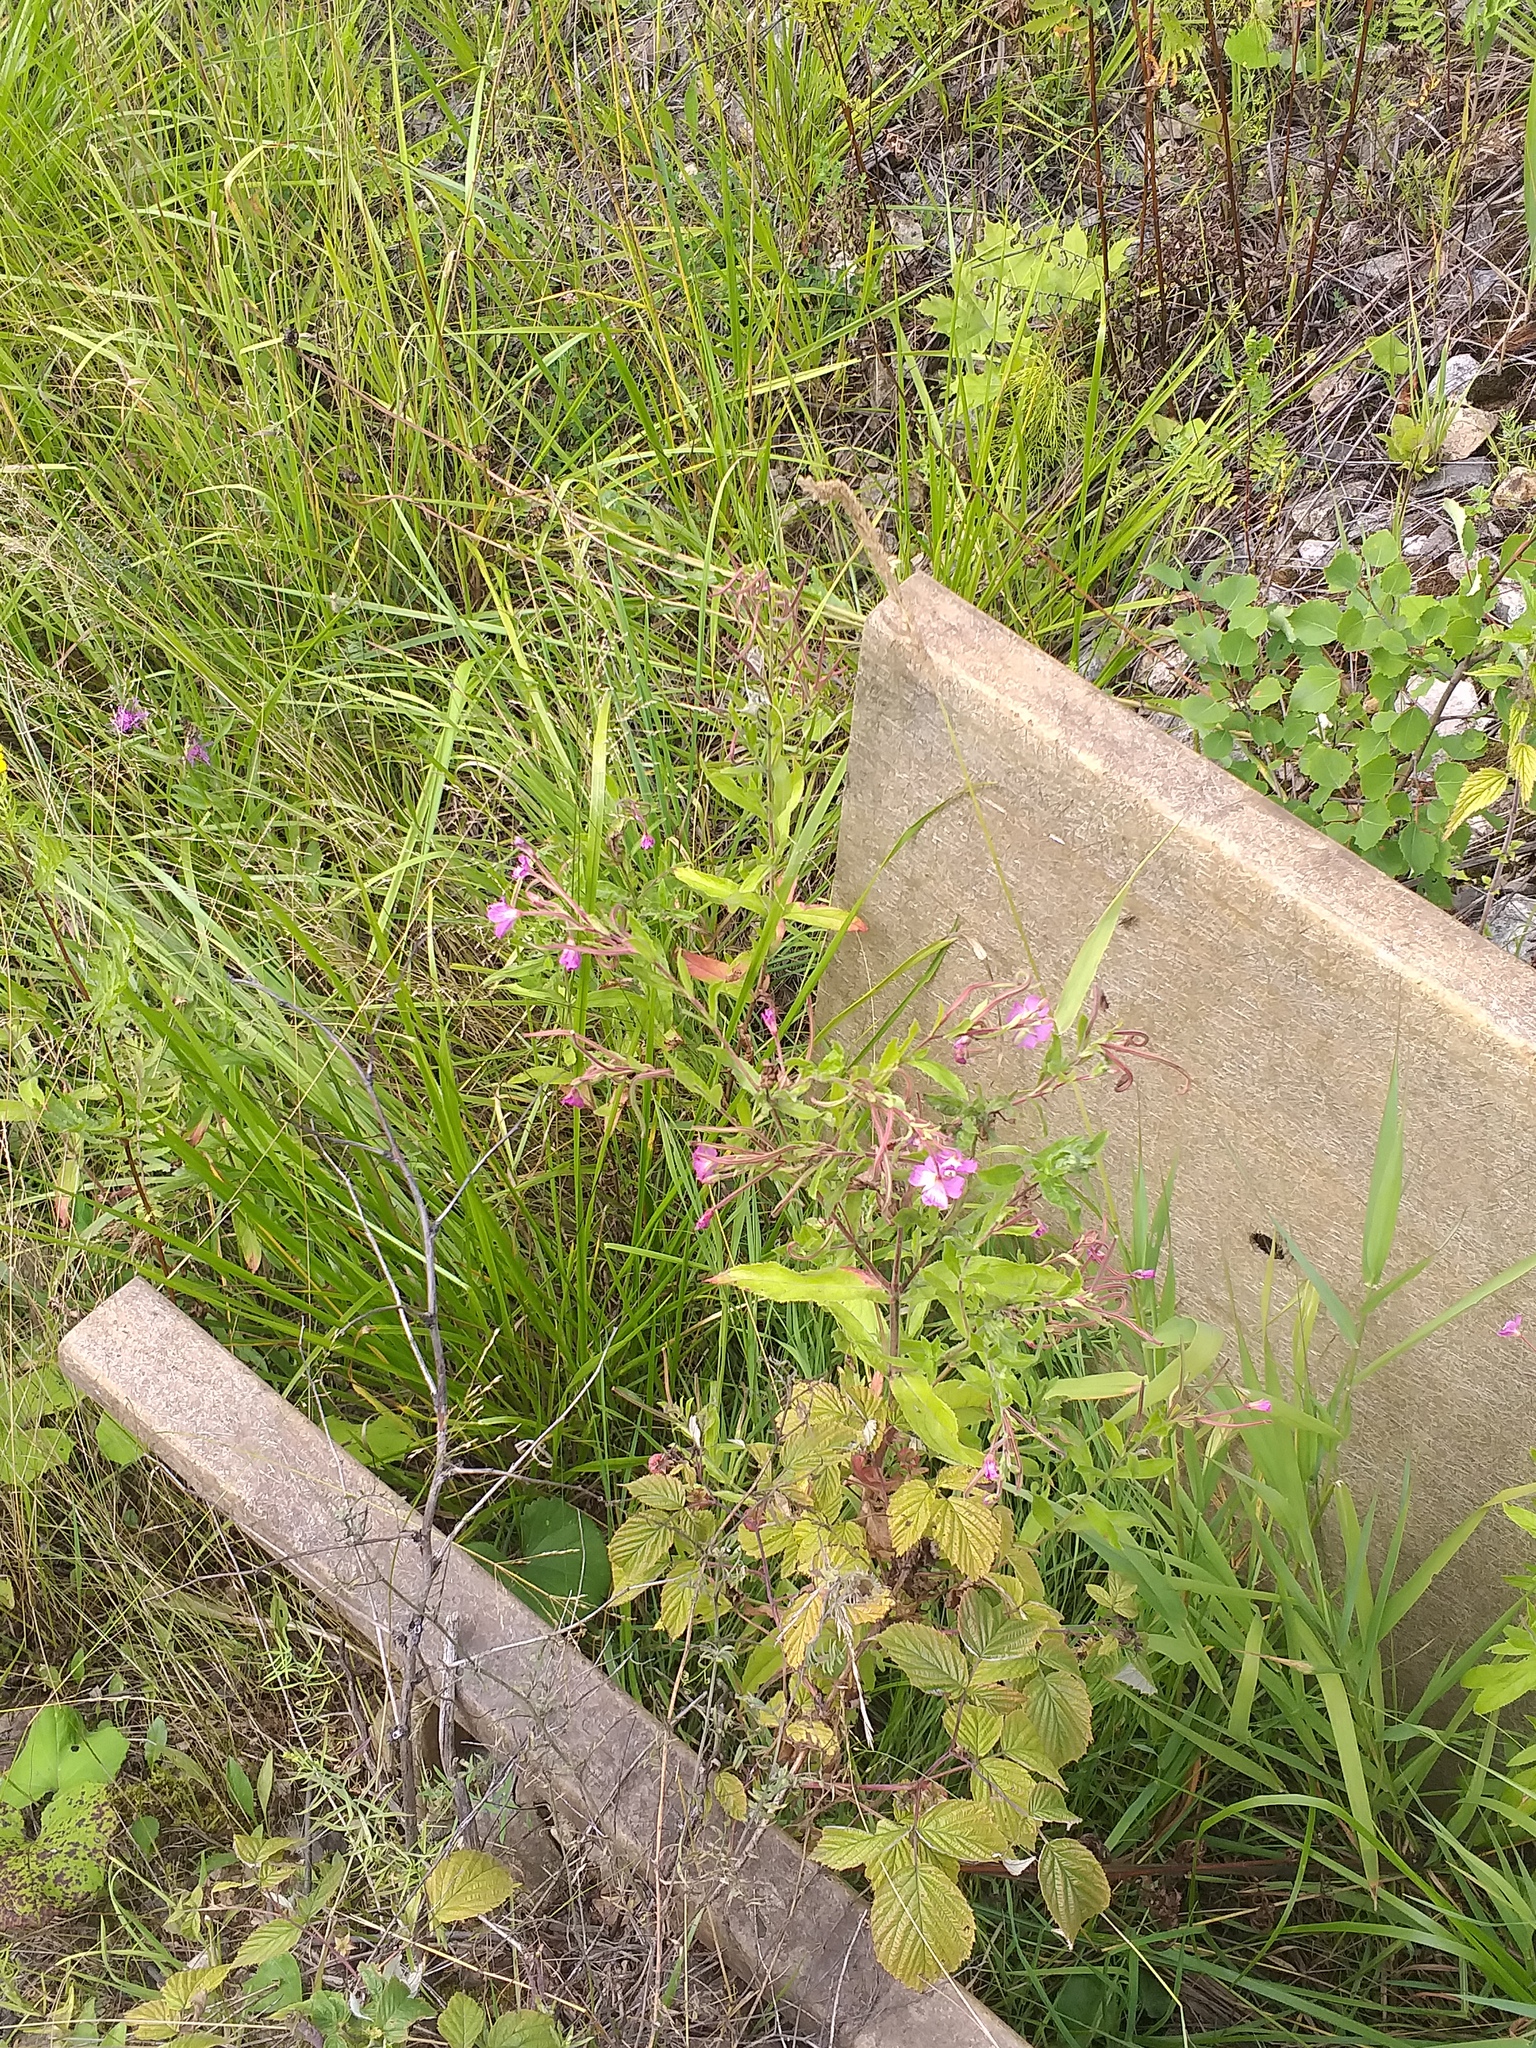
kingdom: Plantae
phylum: Tracheophyta
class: Magnoliopsida
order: Myrtales
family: Onagraceae
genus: Epilobium
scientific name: Epilobium hirsutum
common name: Great willowherb
